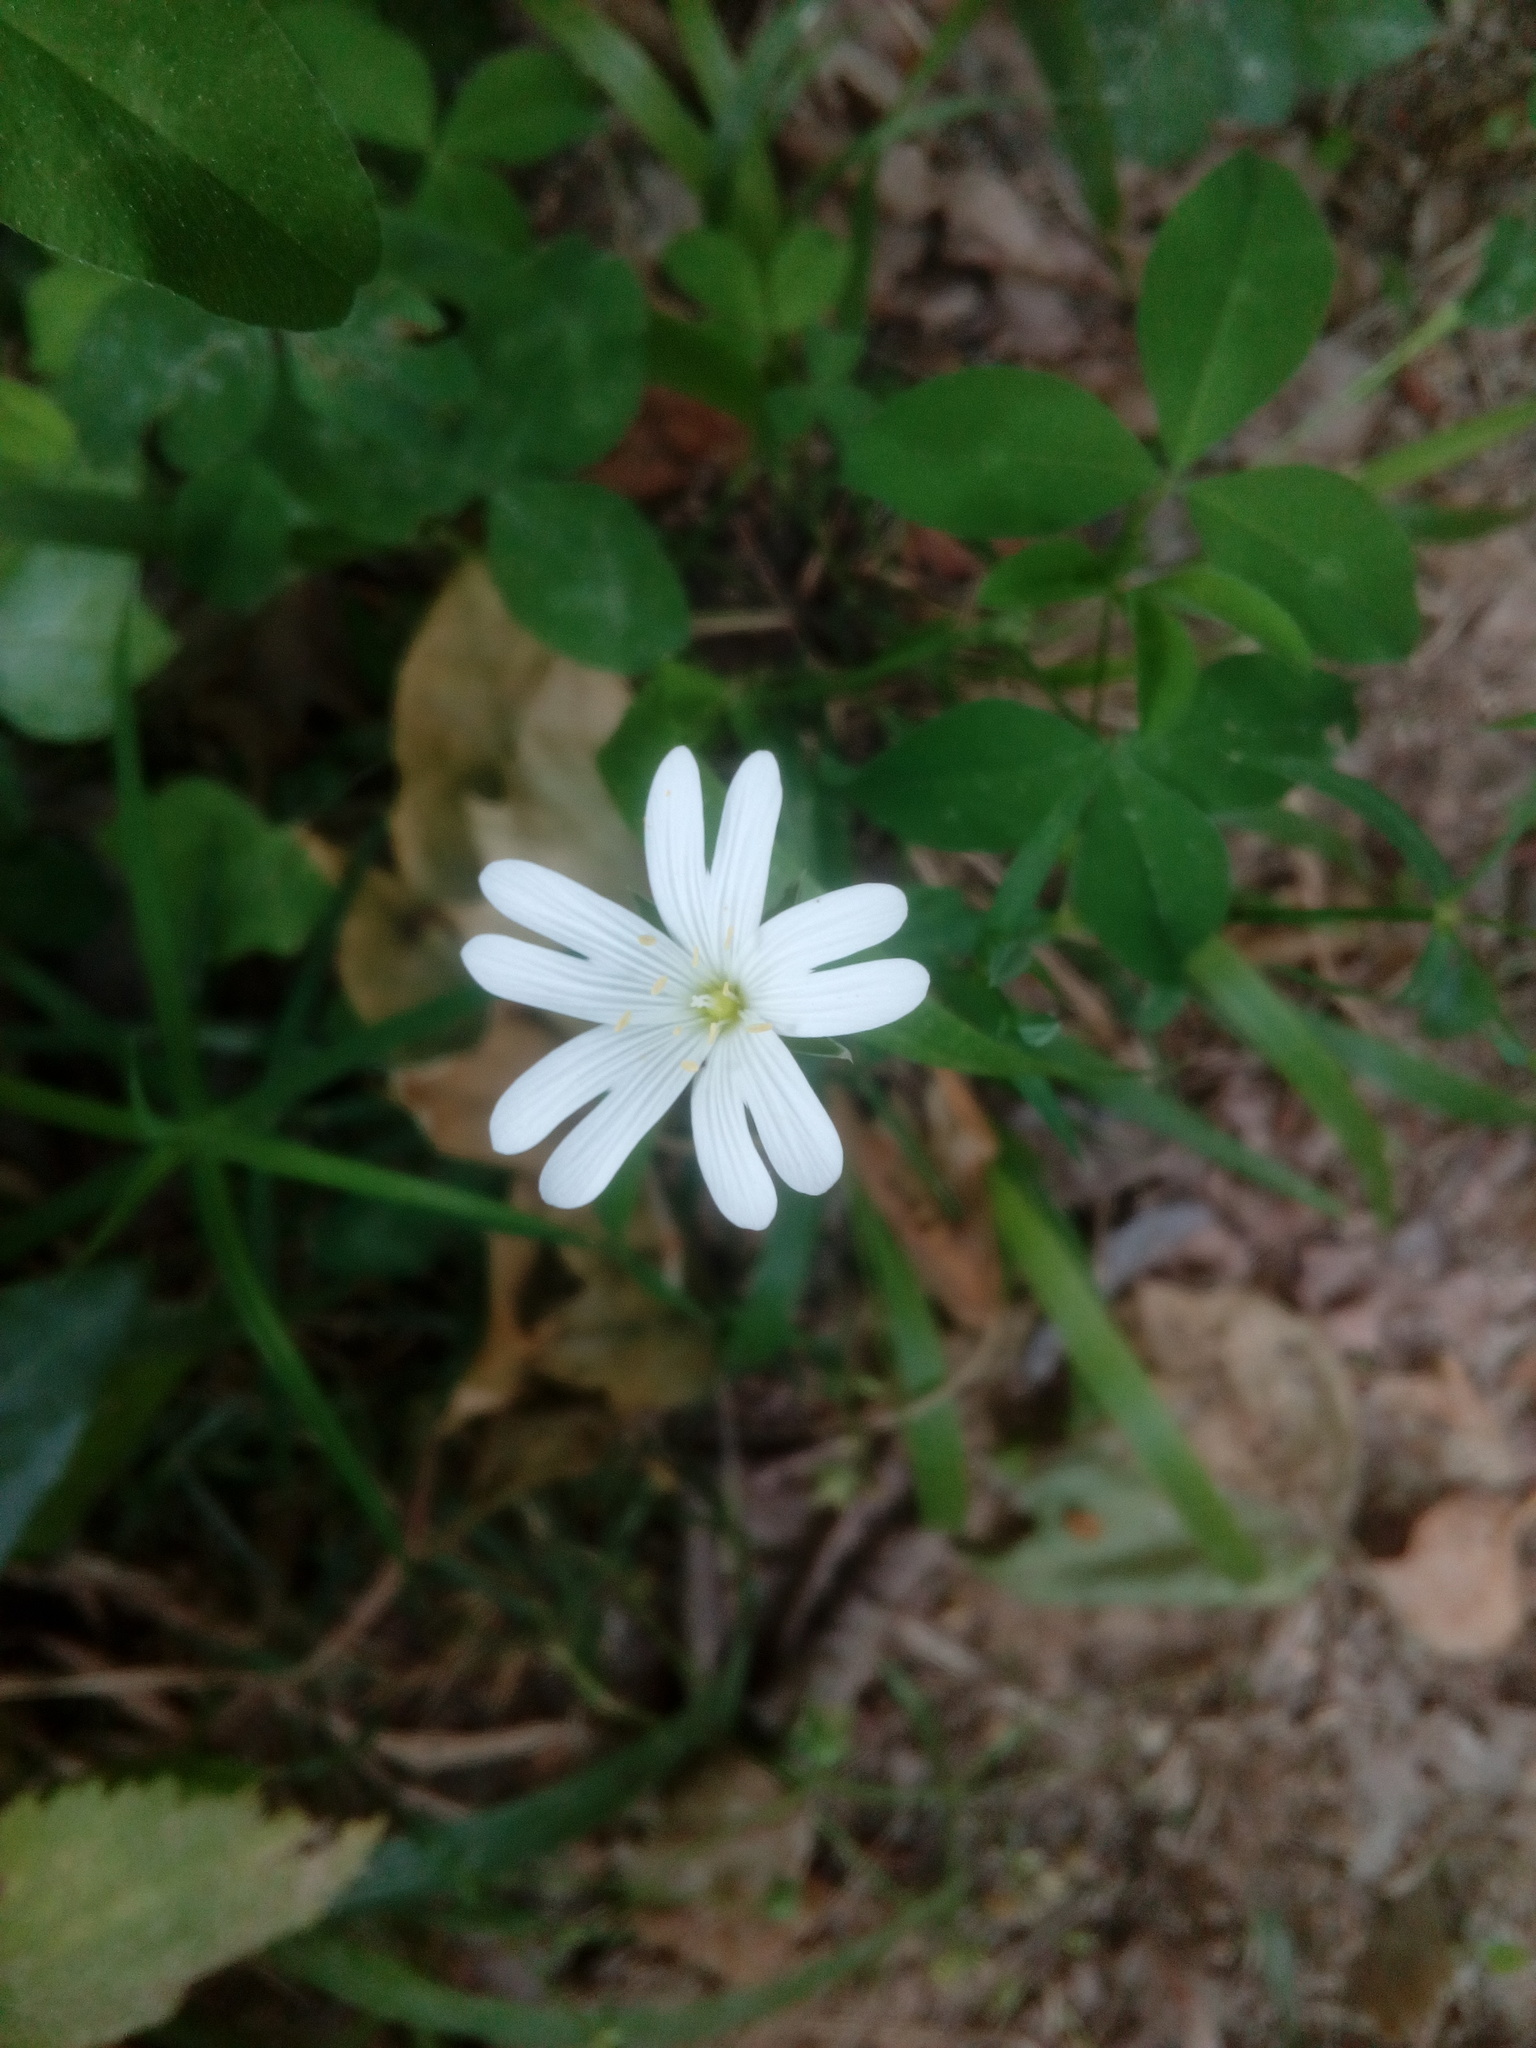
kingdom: Plantae
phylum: Tracheophyta
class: Magnoliopsida
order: Caryophyllales
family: Caryophyllaceae
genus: Rabelera
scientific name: Rabelera holostea
